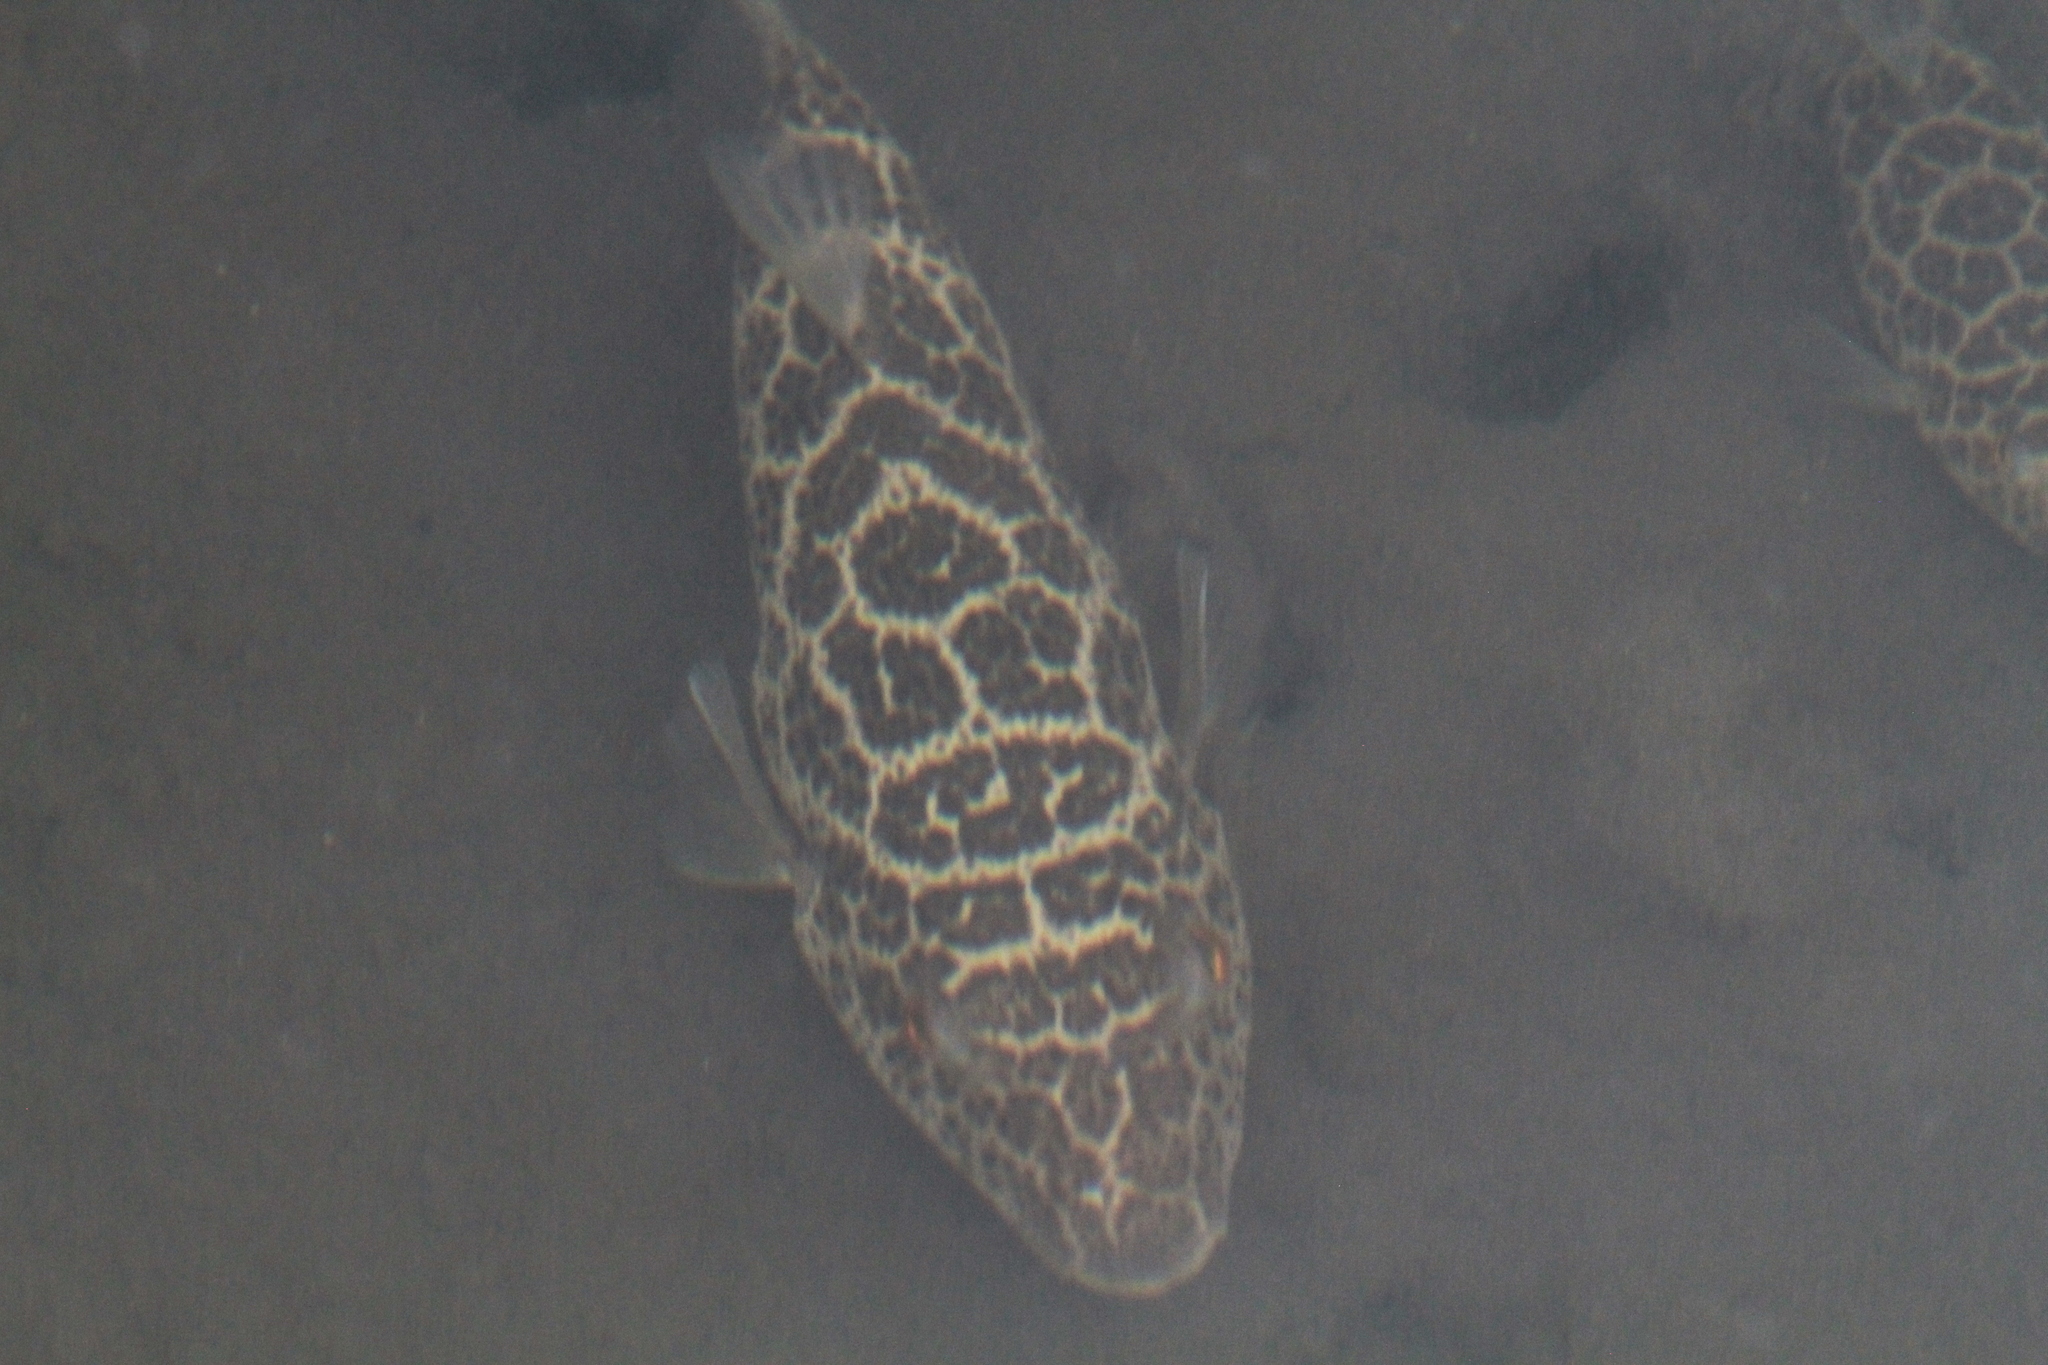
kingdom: Animalia
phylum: Chordata
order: Tetraodontiformes
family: Tetraodontidae
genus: Sphoeroides
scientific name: Sphoeroides testudineus
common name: Checkered puffer
